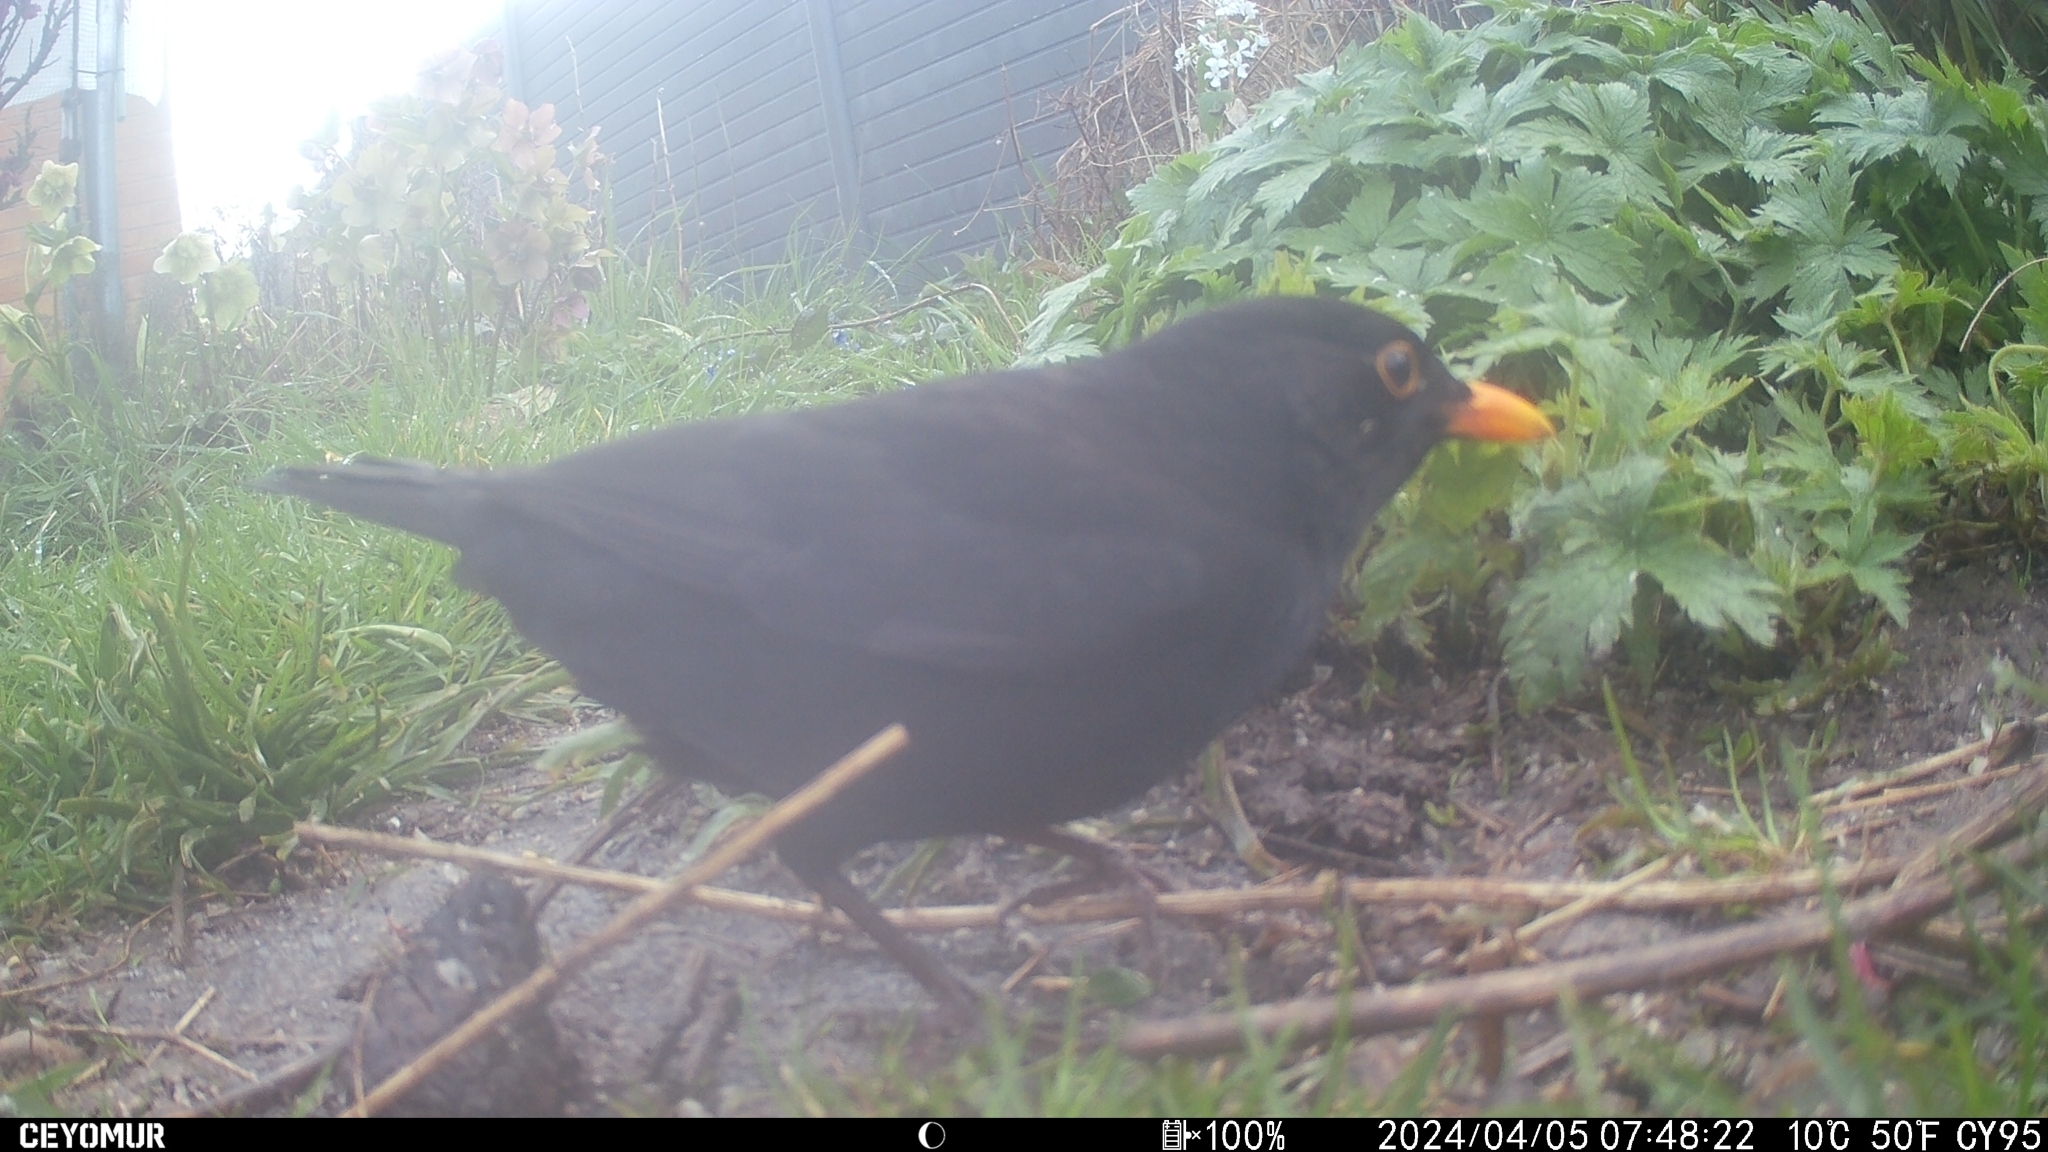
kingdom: Animalia
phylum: Chordata
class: Aves
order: Passeriformes
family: Turdidae
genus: Turdus
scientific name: Turdus merula
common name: Common blackbird
